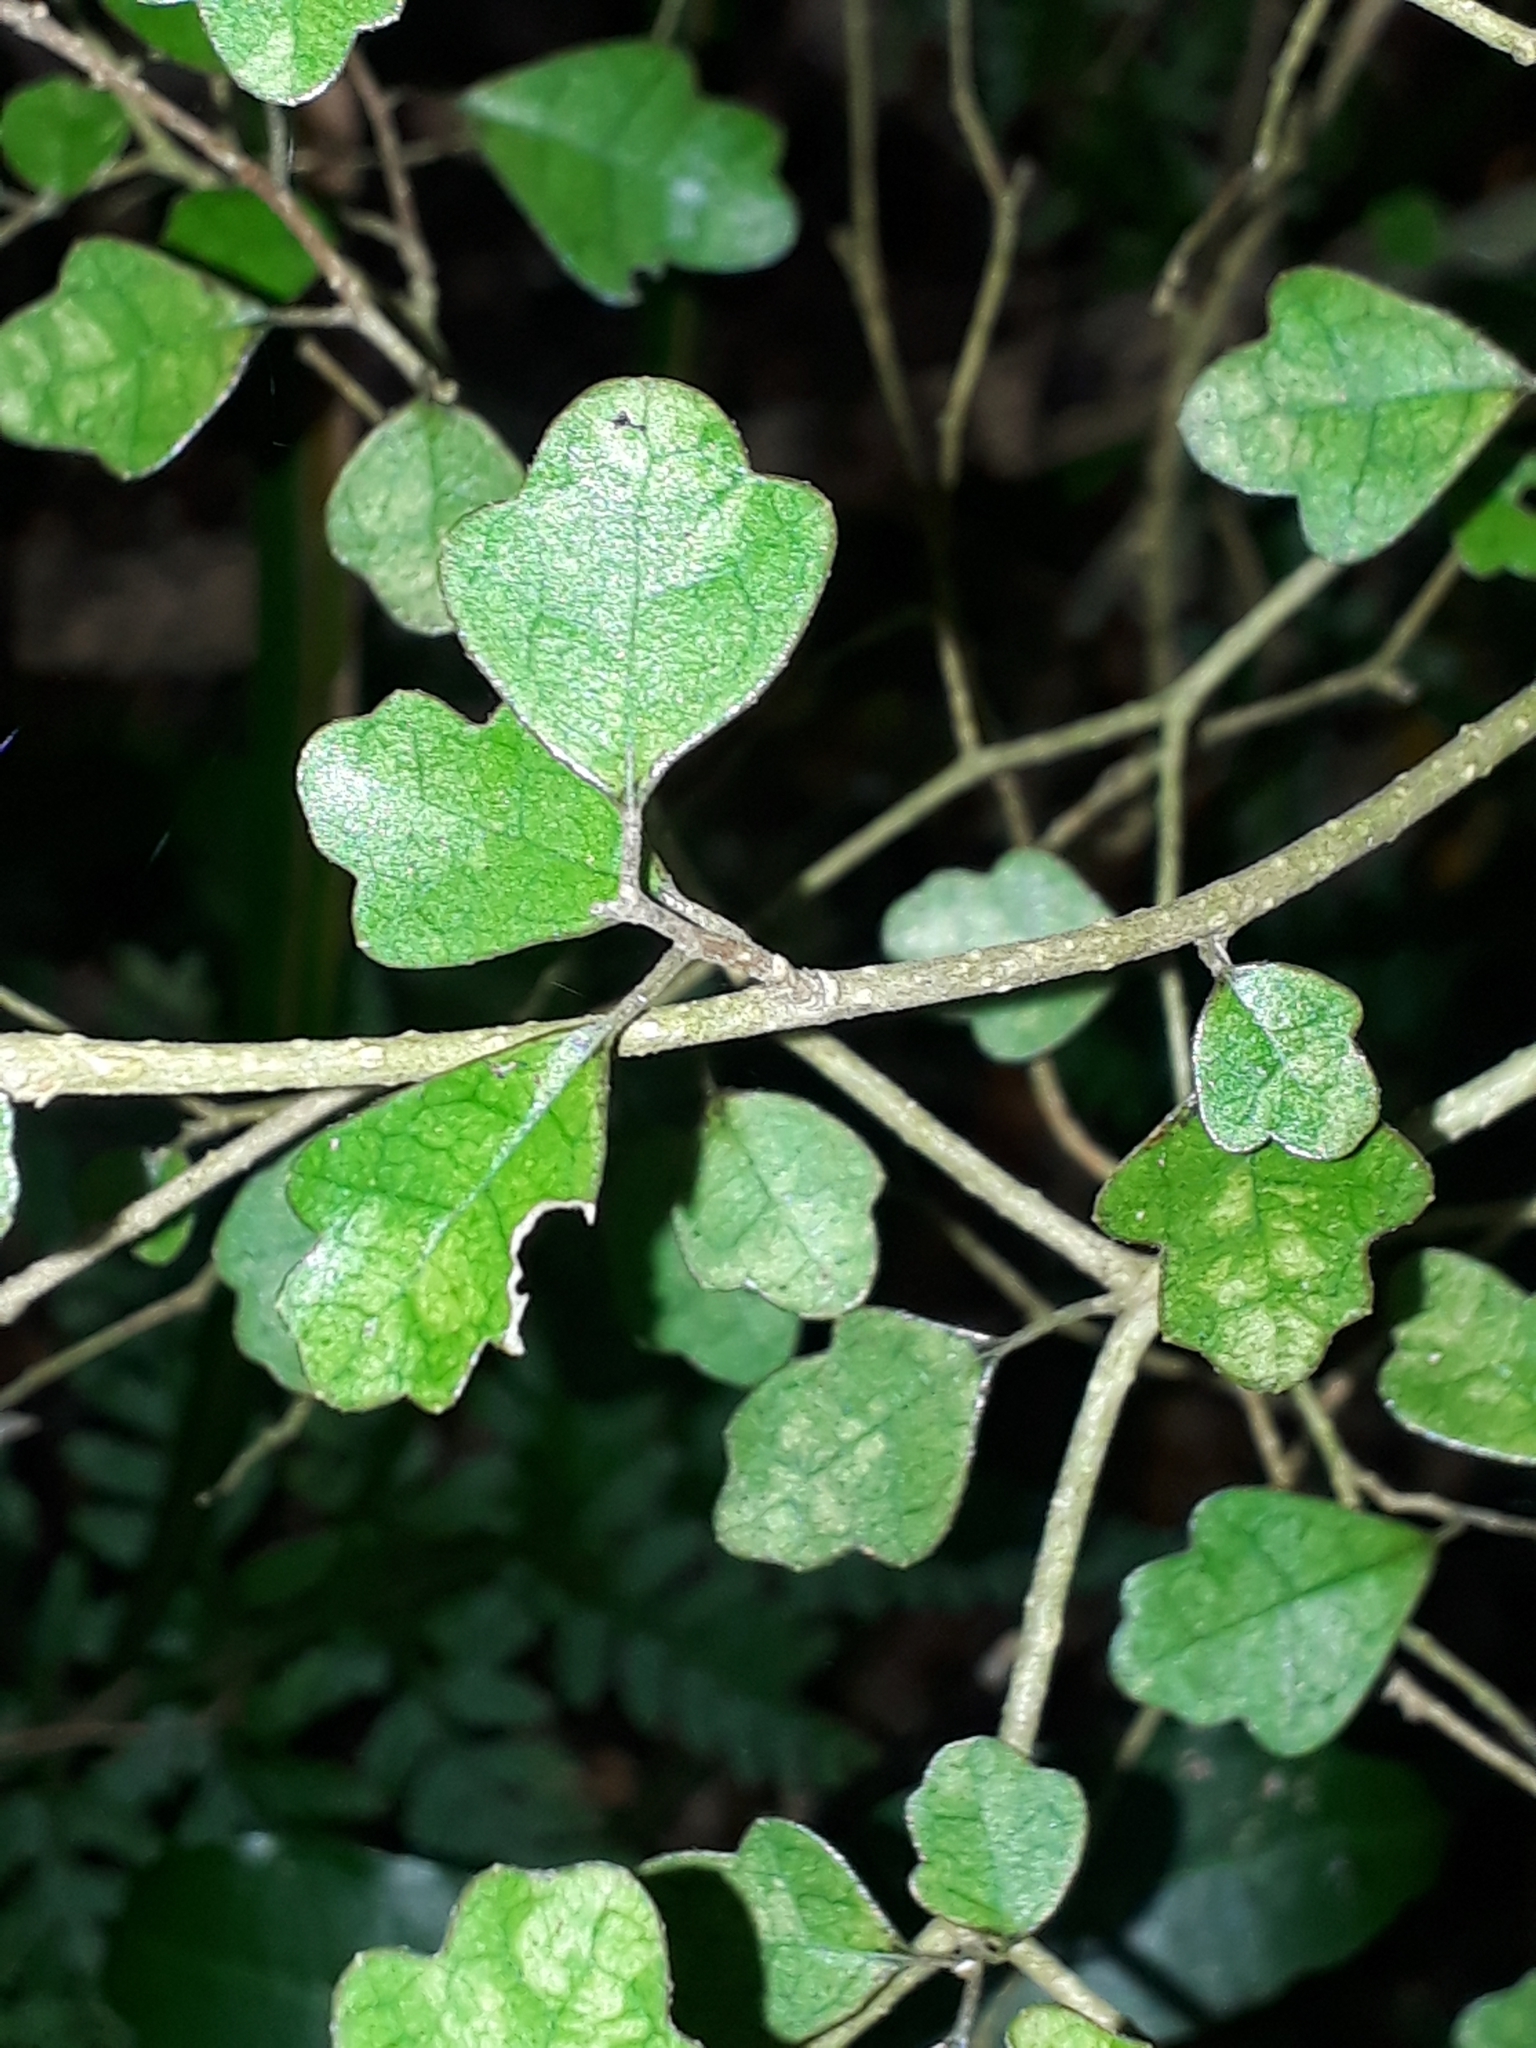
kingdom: Plantae
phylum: Tracheophyta
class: Magnoliopsida
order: Apiales
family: Pennantiaceae
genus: Pennantia
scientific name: Pennantia corymbosa
